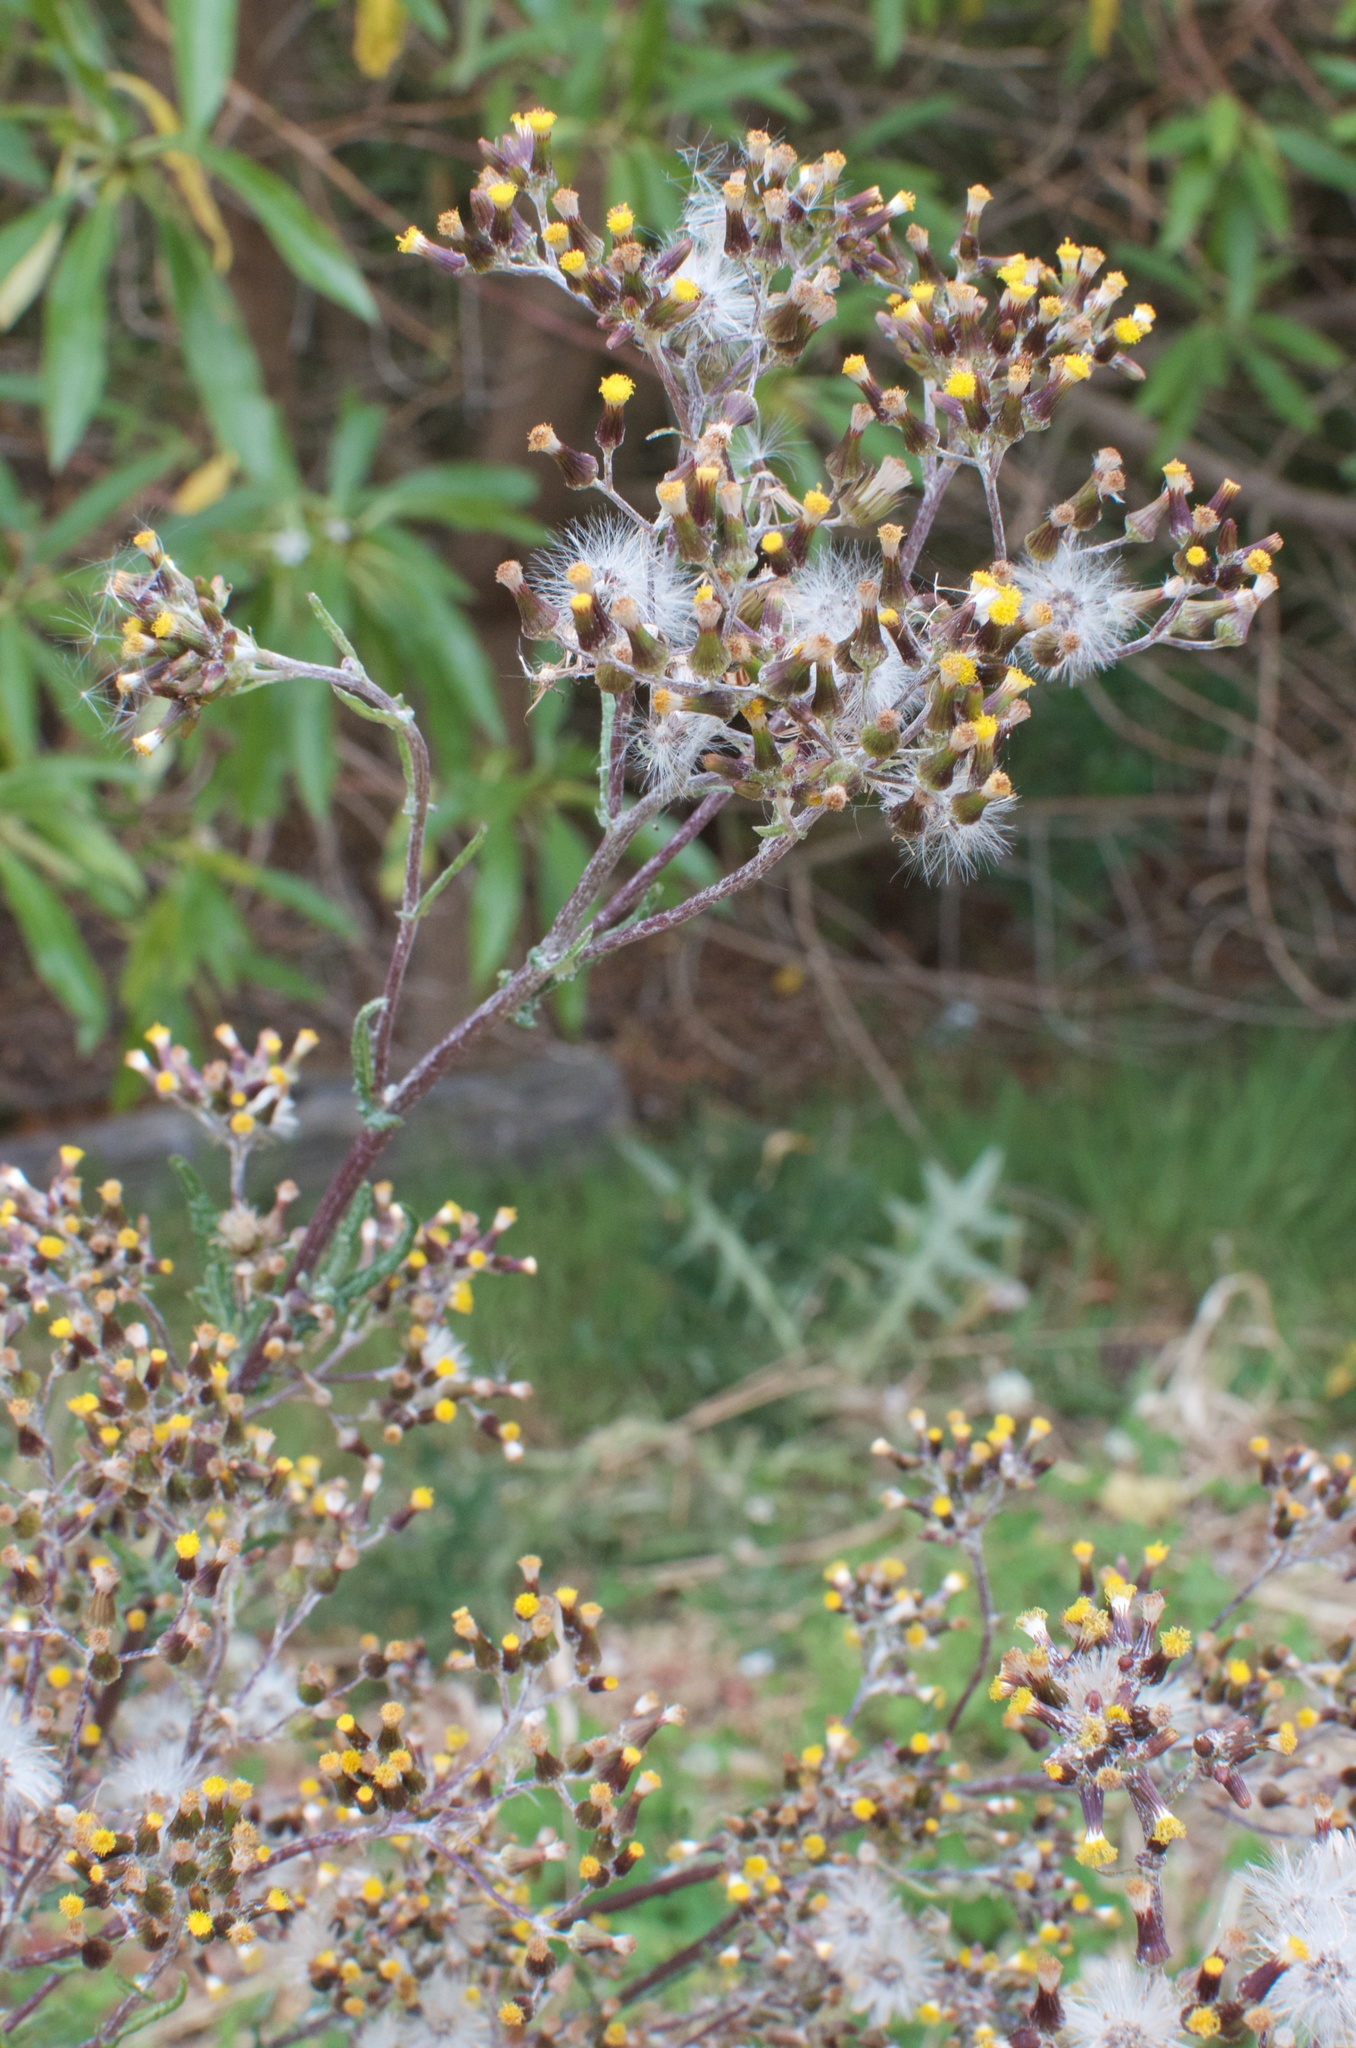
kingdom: Plantae
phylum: Tracheophyta
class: Magnoliopsida
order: Asterales
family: Asteraceae
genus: Senecio
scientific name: Senecio glomeratus
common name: Cutleaf burnweed
